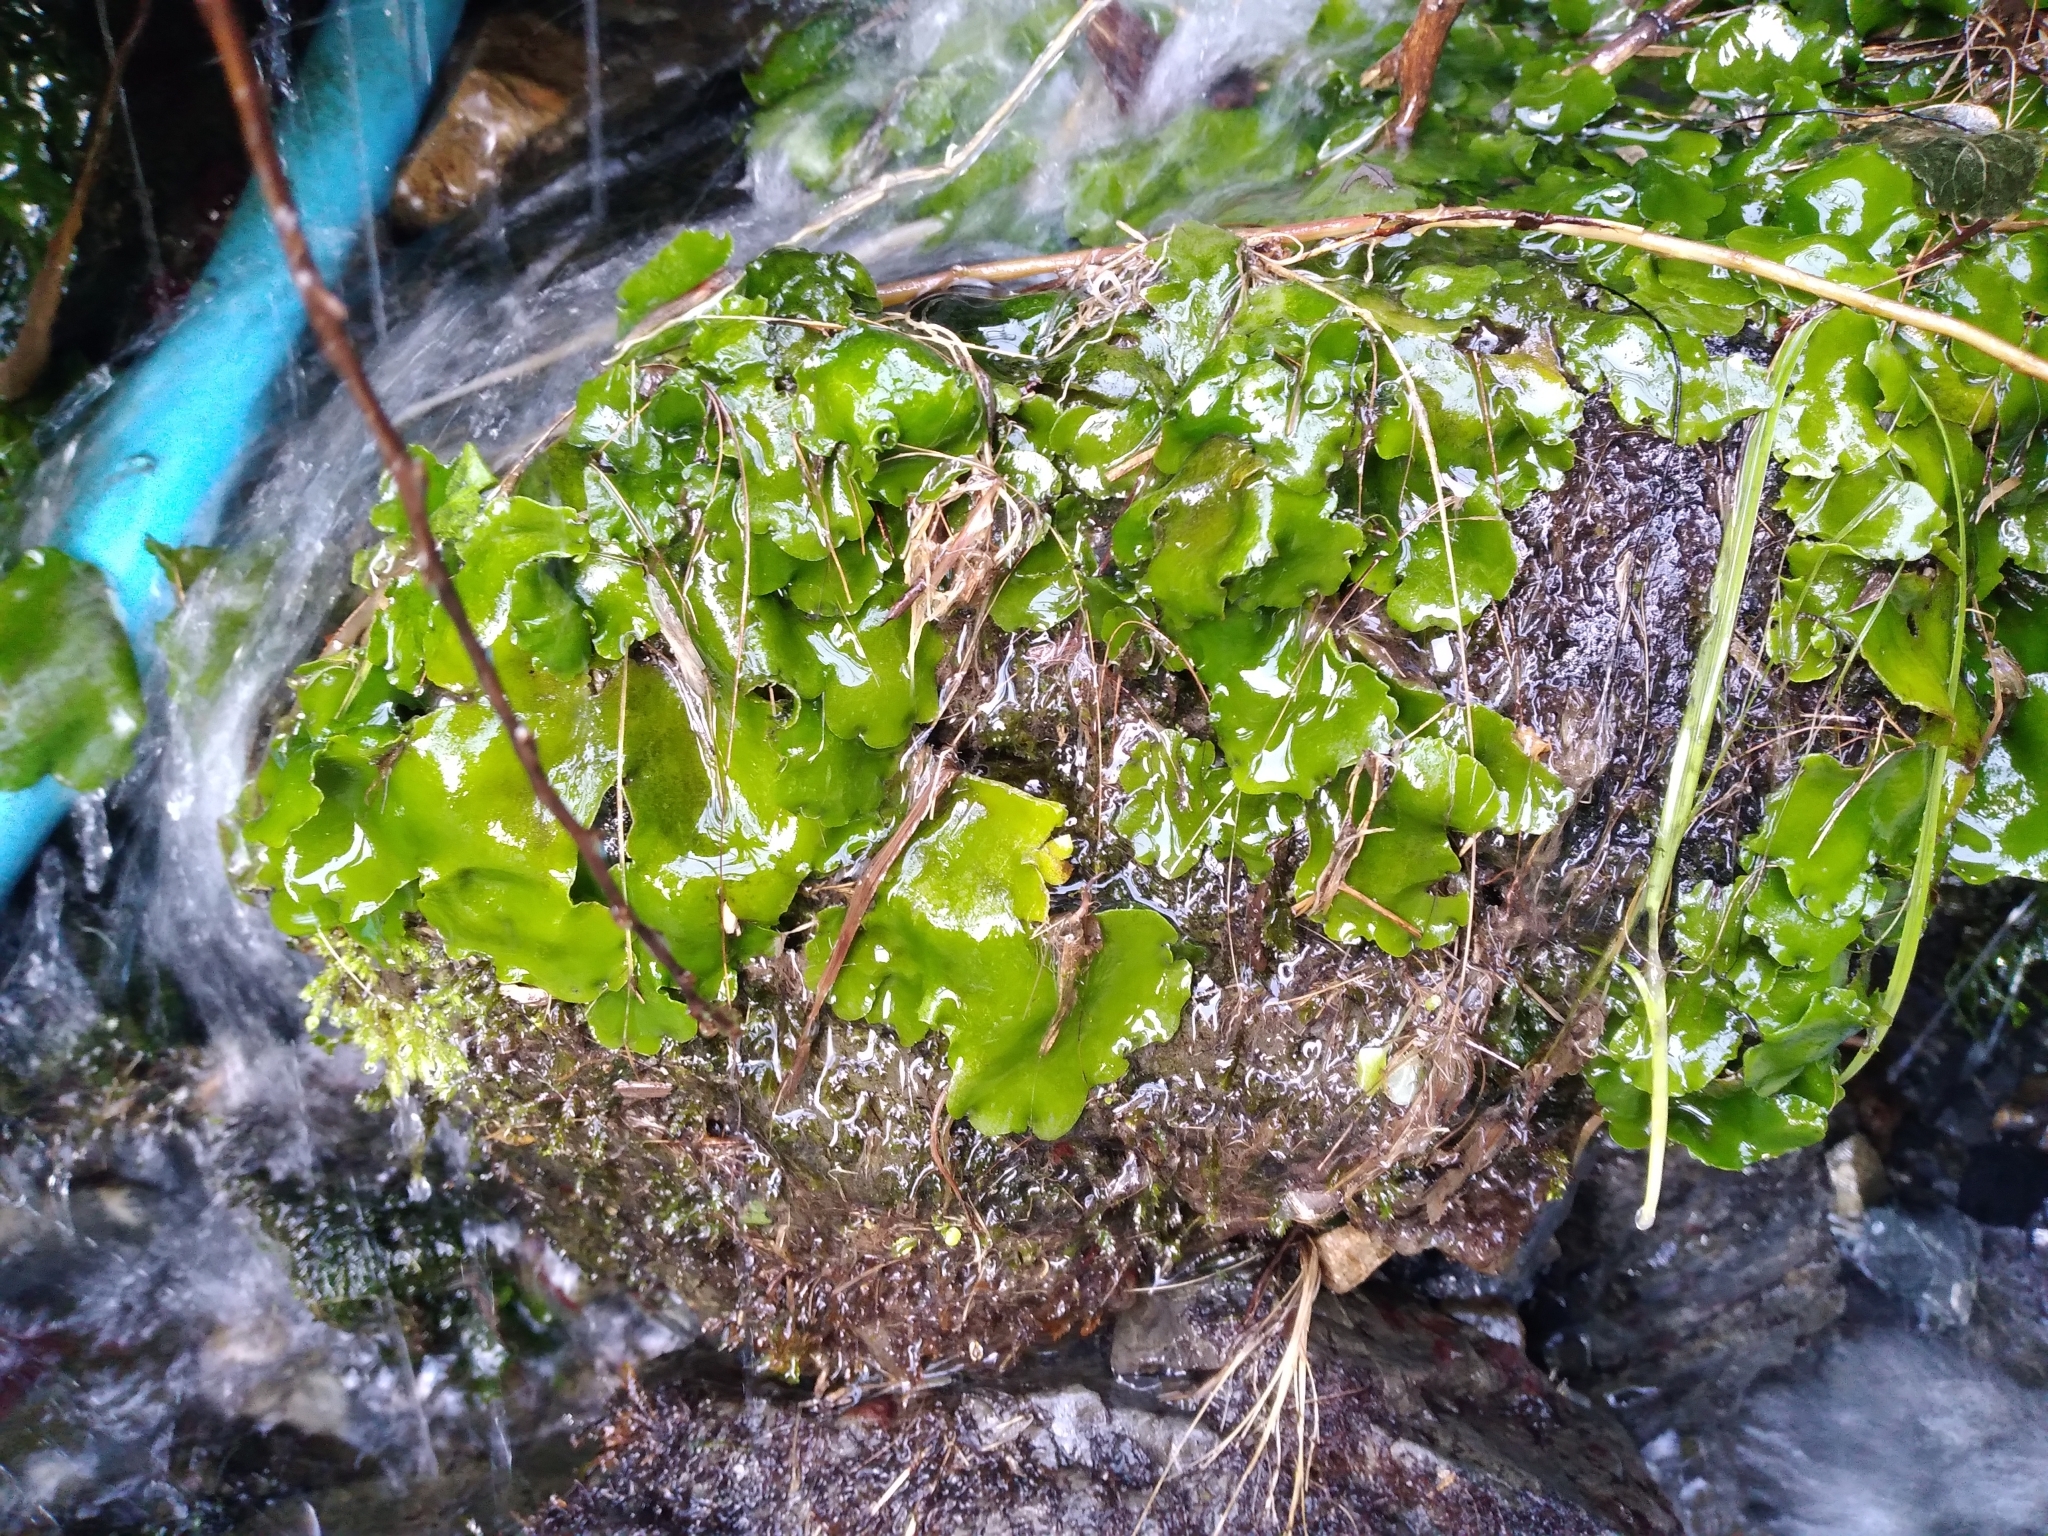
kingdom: Plantae
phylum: Marchantiophyta
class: Marchantiopsida
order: Marchantiales
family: Monocleaceae
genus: Monoclea
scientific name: Monoclea forsteri
